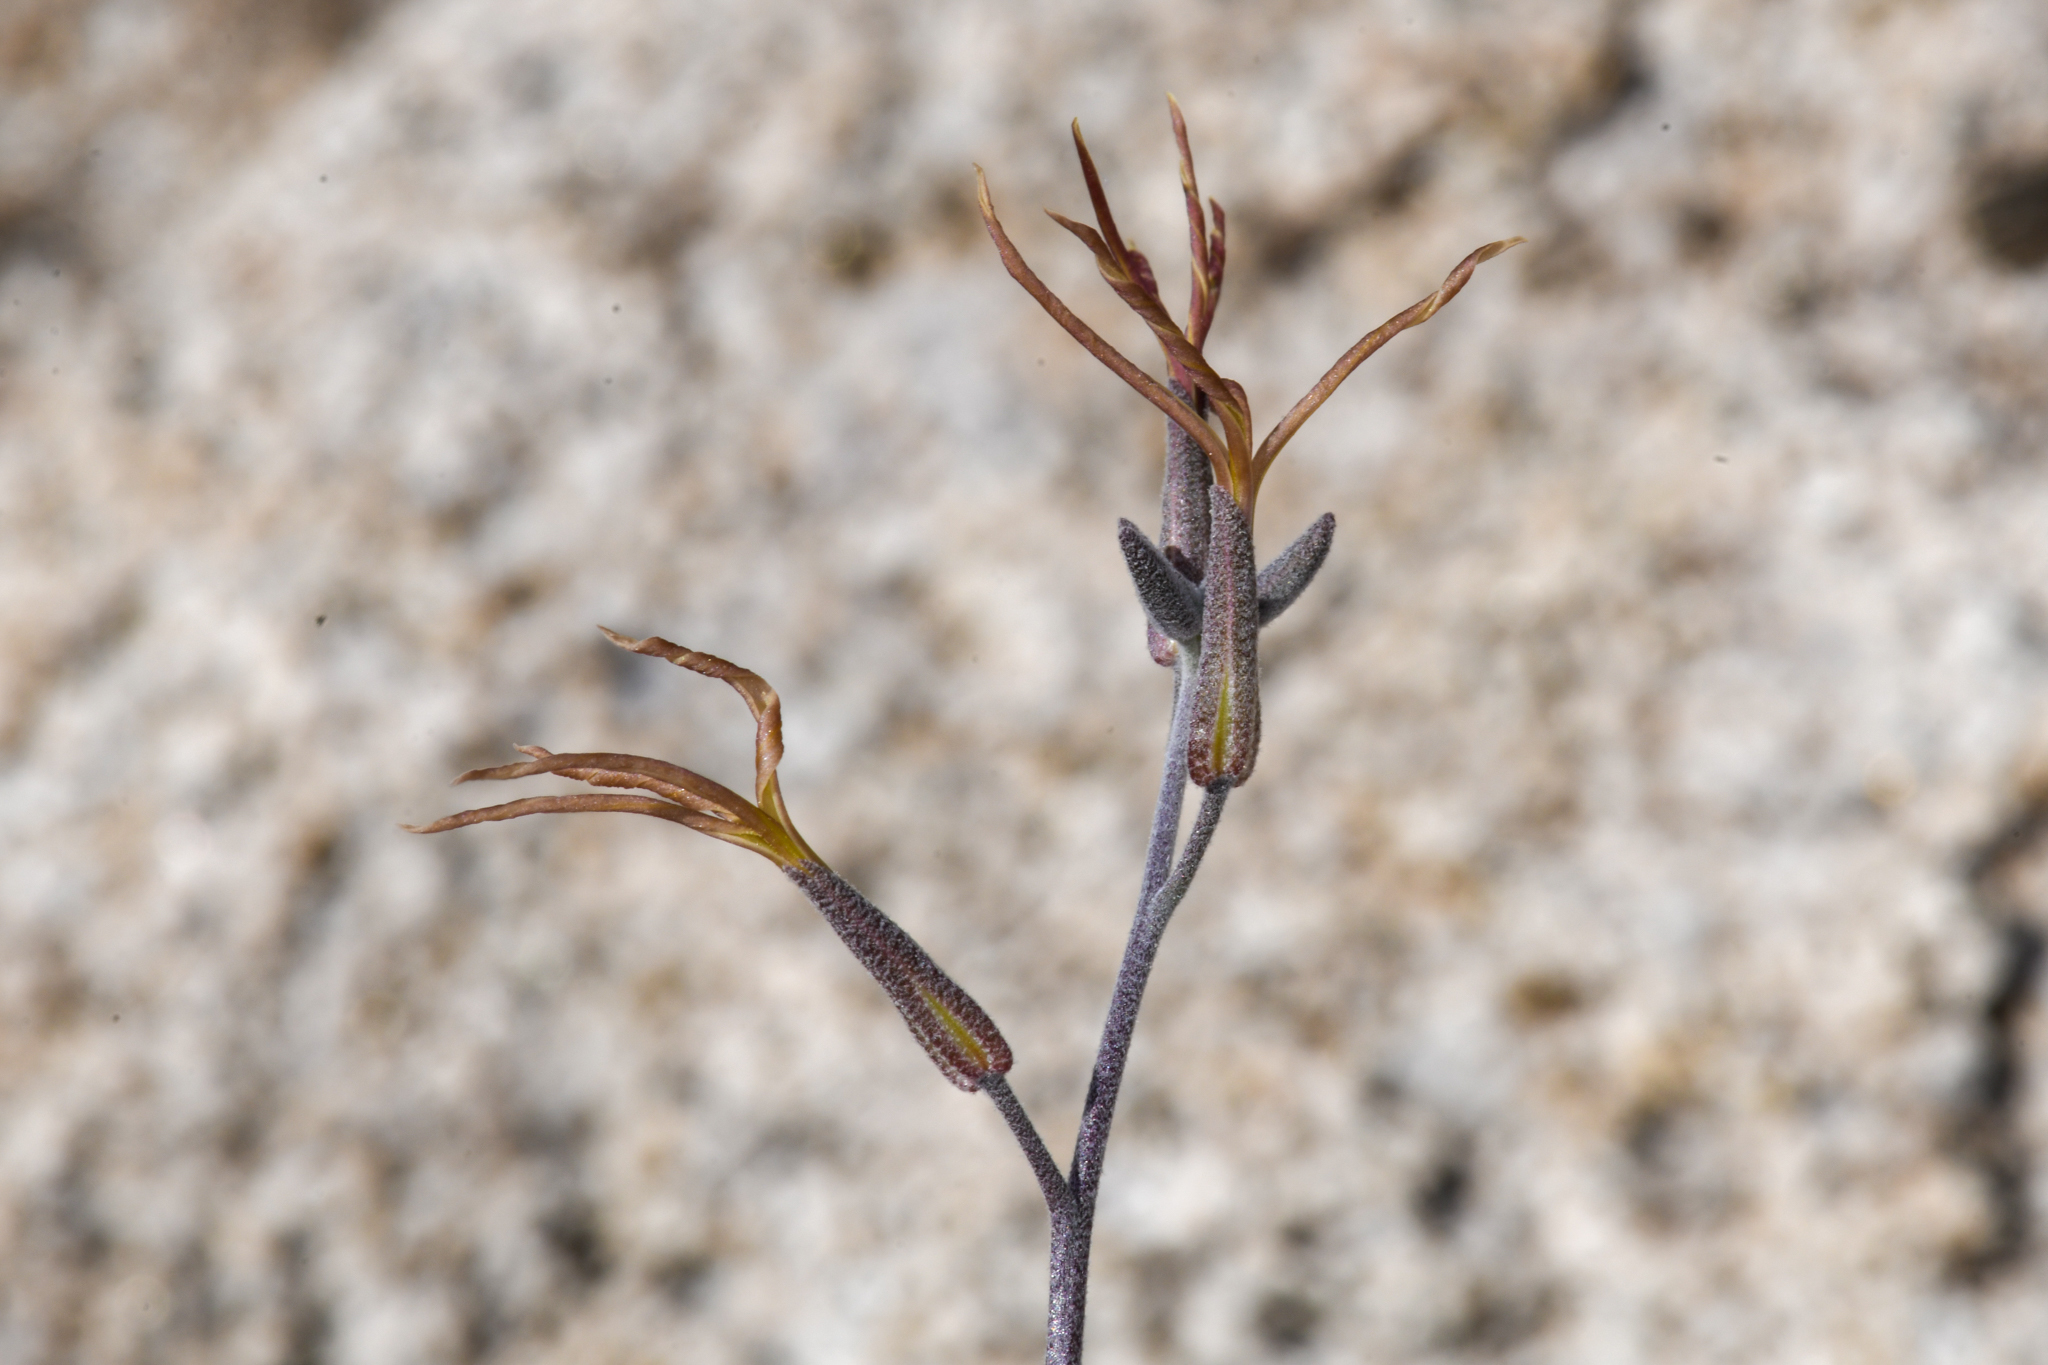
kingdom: Plantae
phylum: Tracheophyta
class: Magnoliopsida
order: Brassicales
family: Brassicaceae
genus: Lyrocarpa
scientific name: Lyrocarpa coulteri
